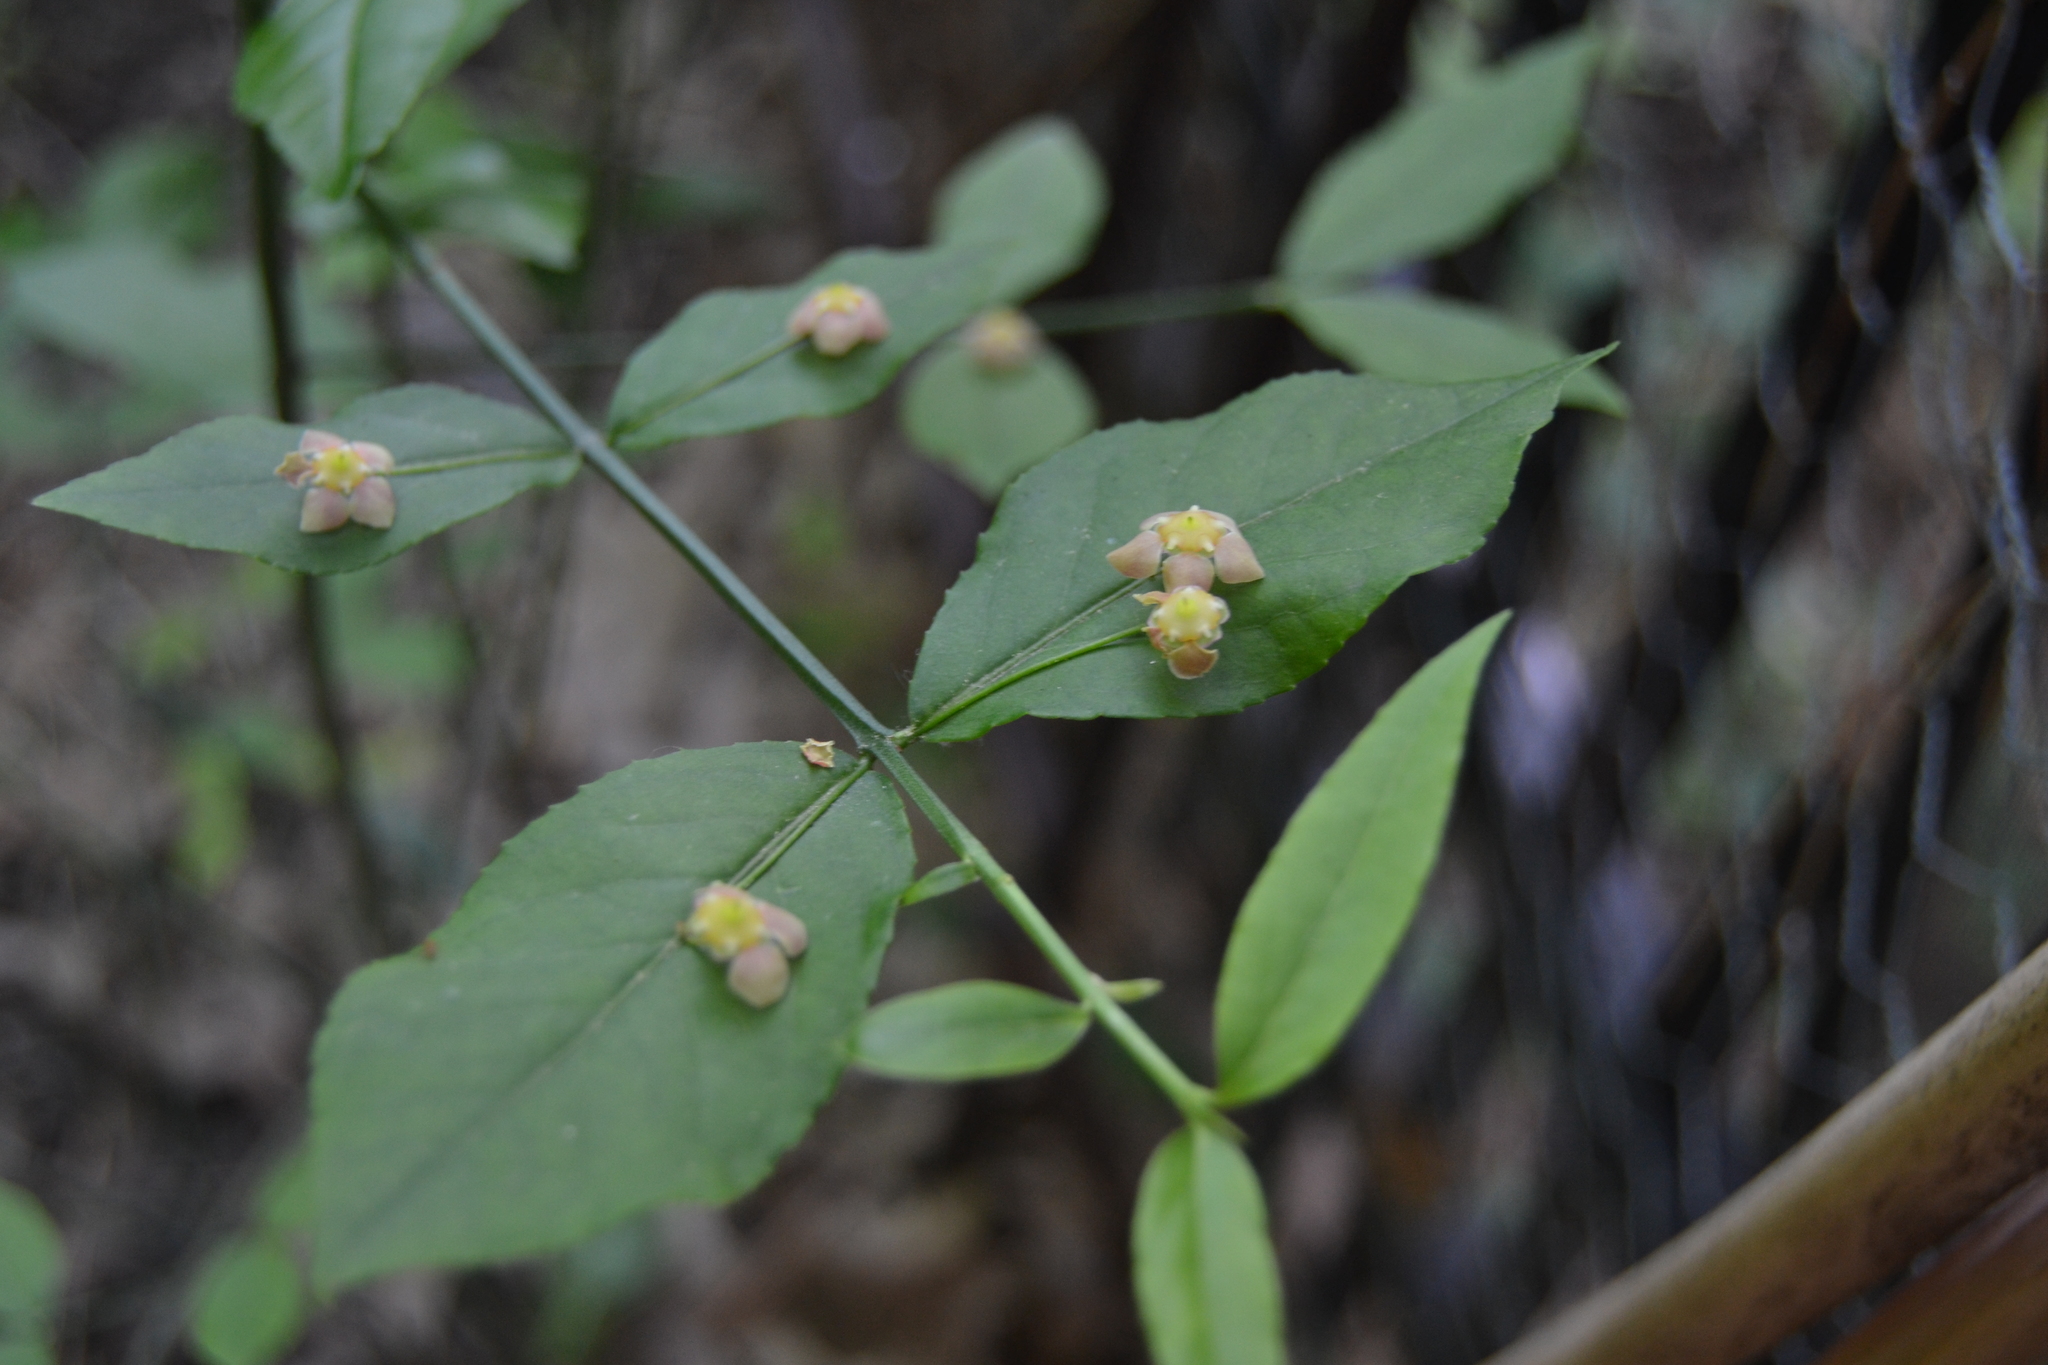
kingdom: Plantae
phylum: Tracheophyta
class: Magnoliopsida
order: Celastrales
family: Celastraceae
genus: Euonymus
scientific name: Euonymus americanus
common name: Bursting-heart
